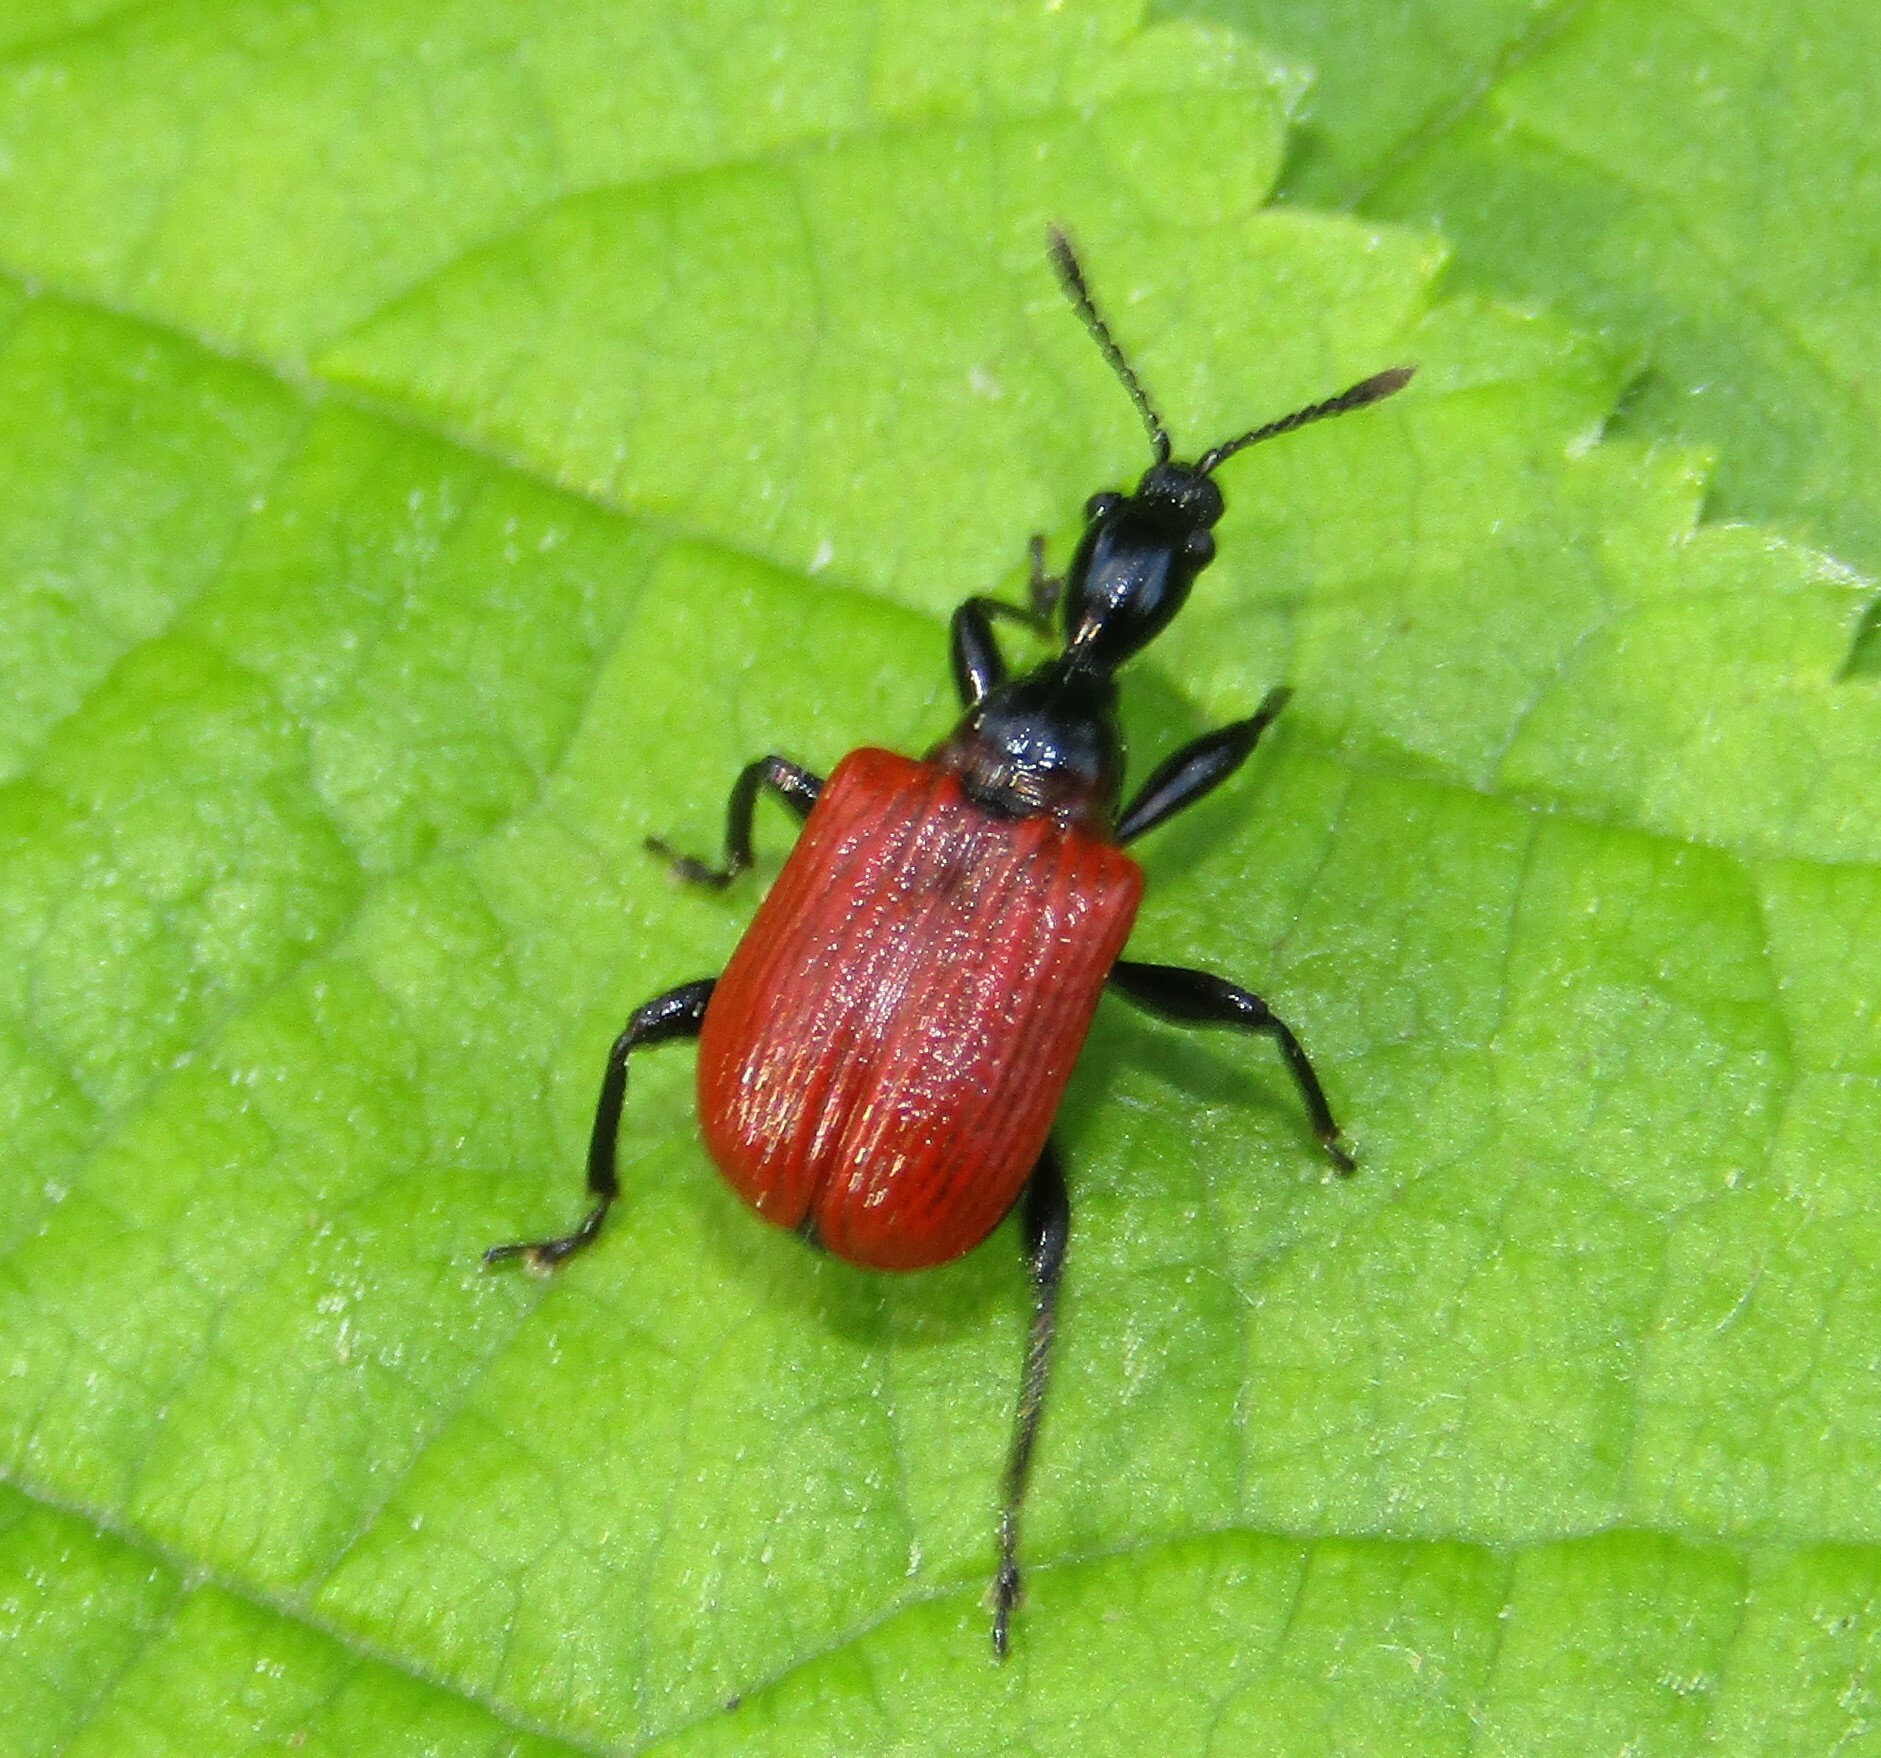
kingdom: Animalia
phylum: Arthropoda
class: Insecta
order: Coleoptera
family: Attelabidae
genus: Apoderus
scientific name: Apoderus coryli
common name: Hazel leaf roller
